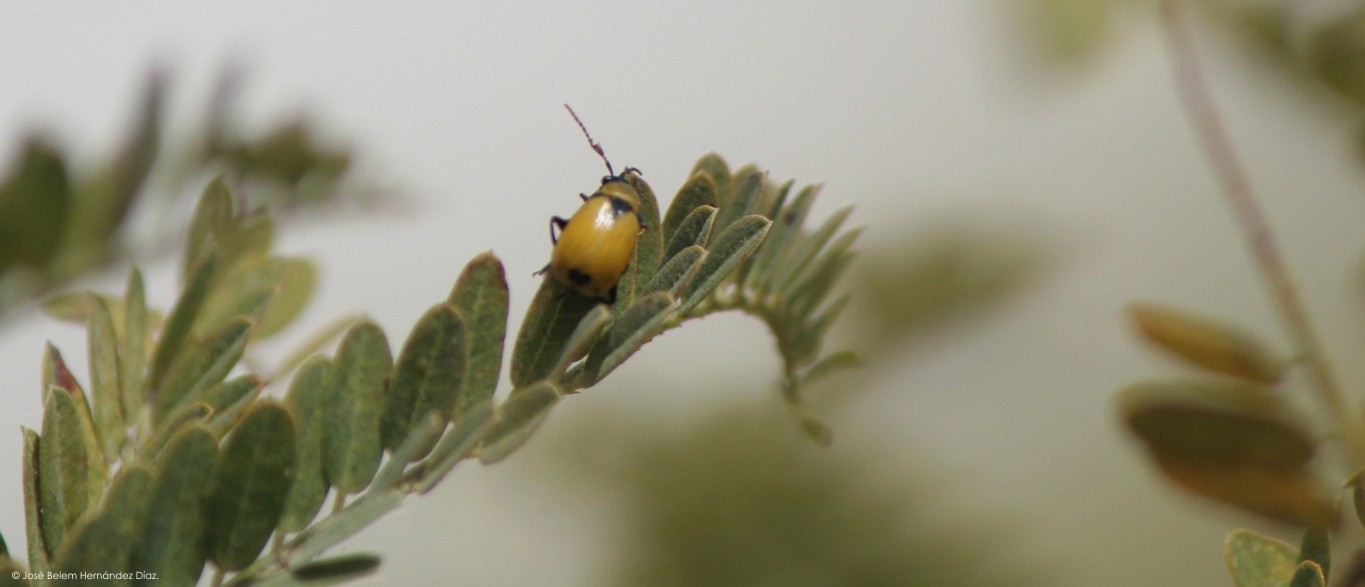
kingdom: Animalia
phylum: Arthropoda
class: Insecta
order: Coleoptera
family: Chrysomelidae
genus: Cerotoma
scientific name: Cerotoma atrofasciata
